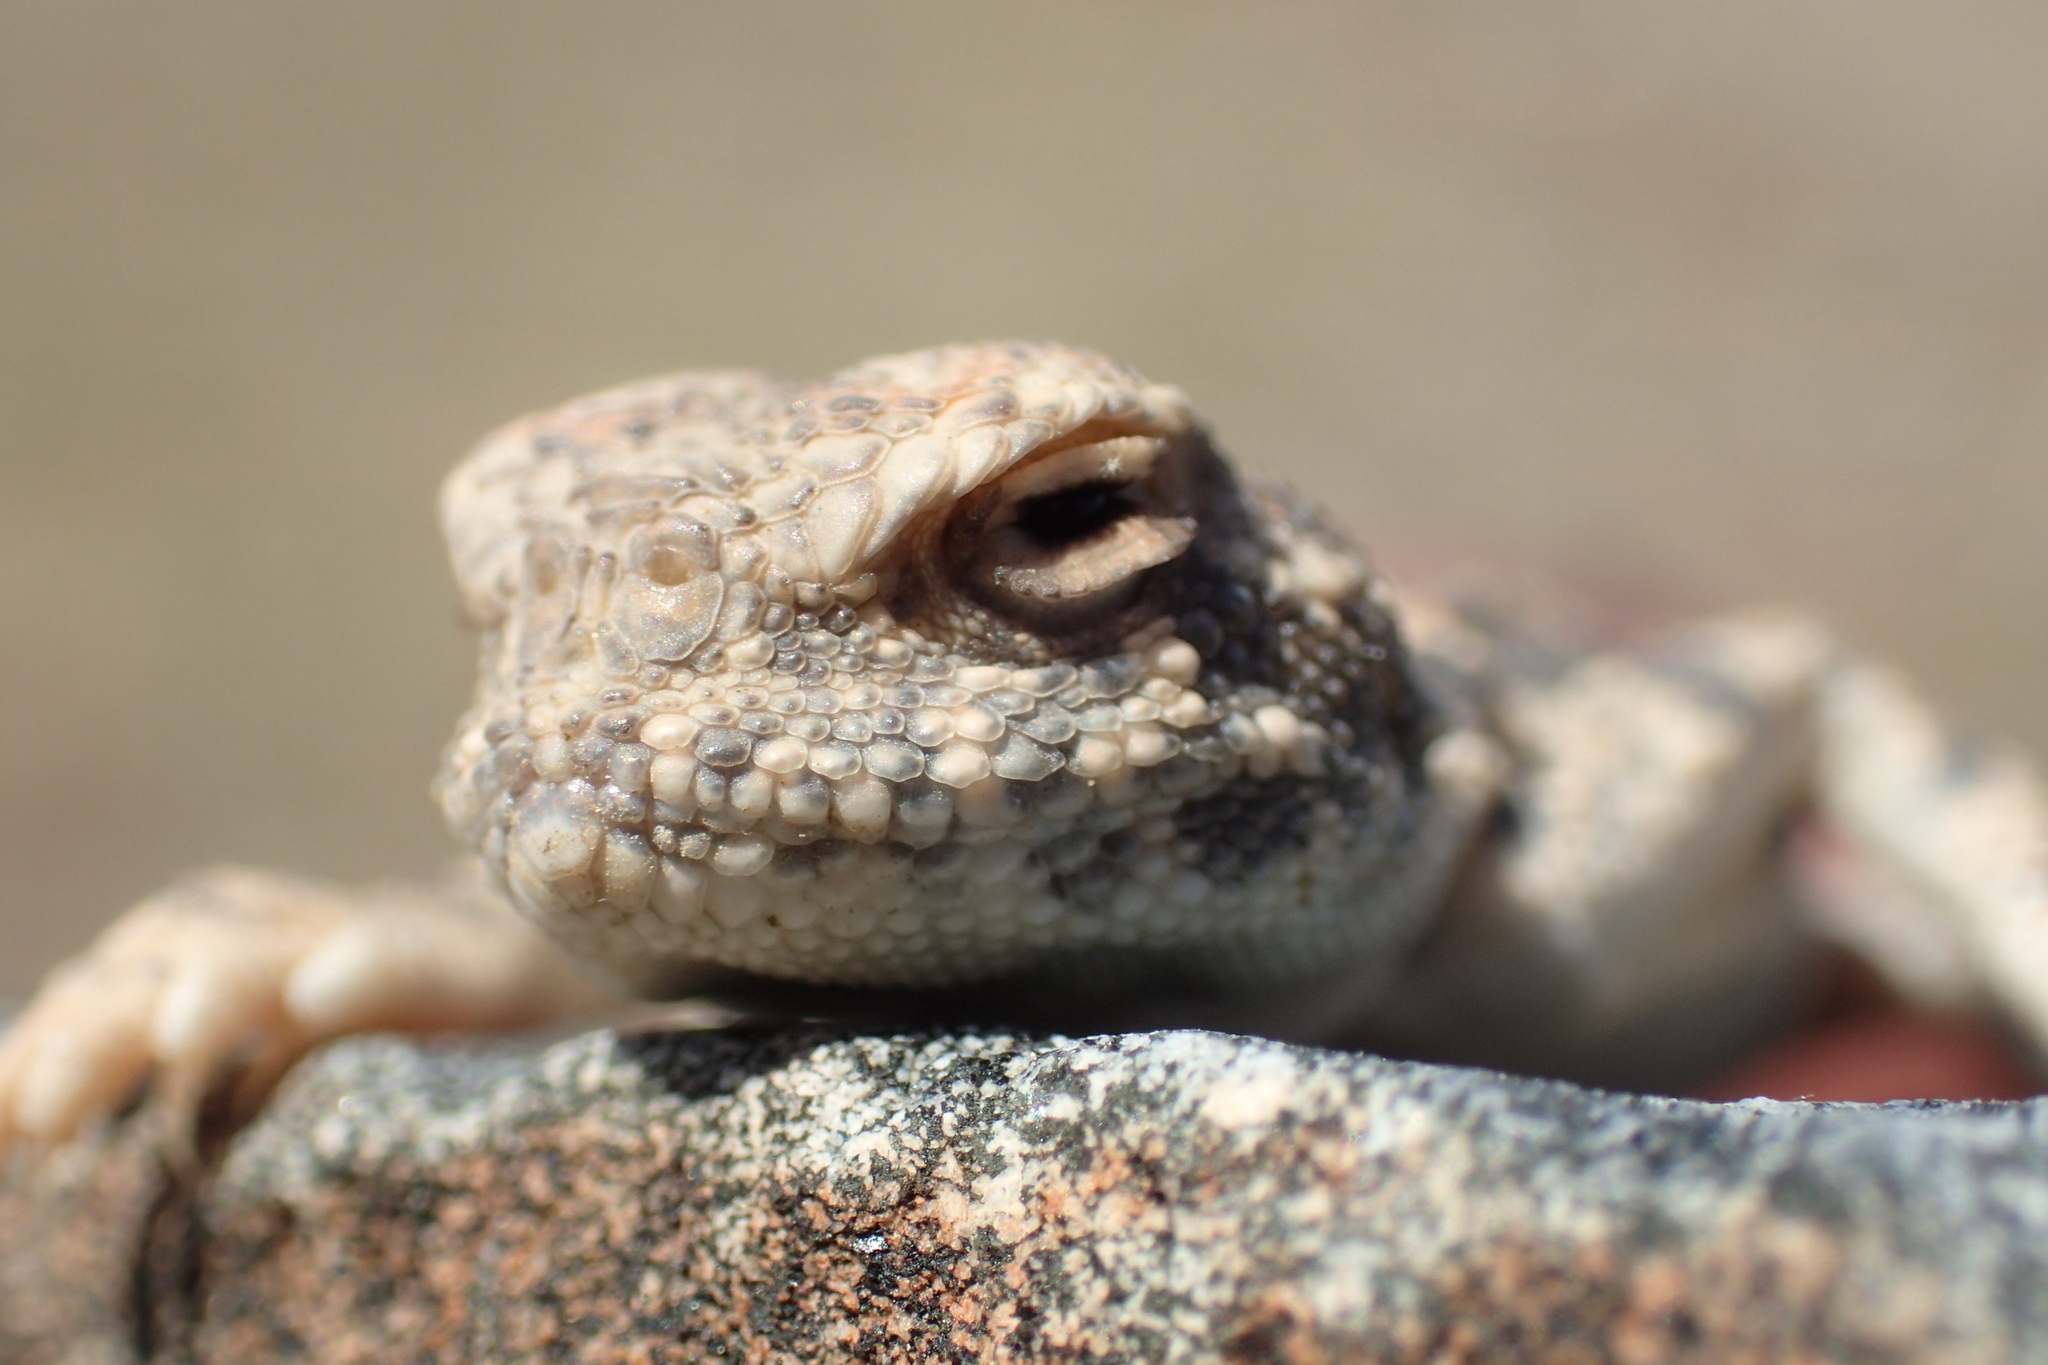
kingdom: Animalia
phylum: Chordata
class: Squamata
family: Agamidae
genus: Phrynocephalus
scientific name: Phrynocephalus helioscopus
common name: Sunwatcher
